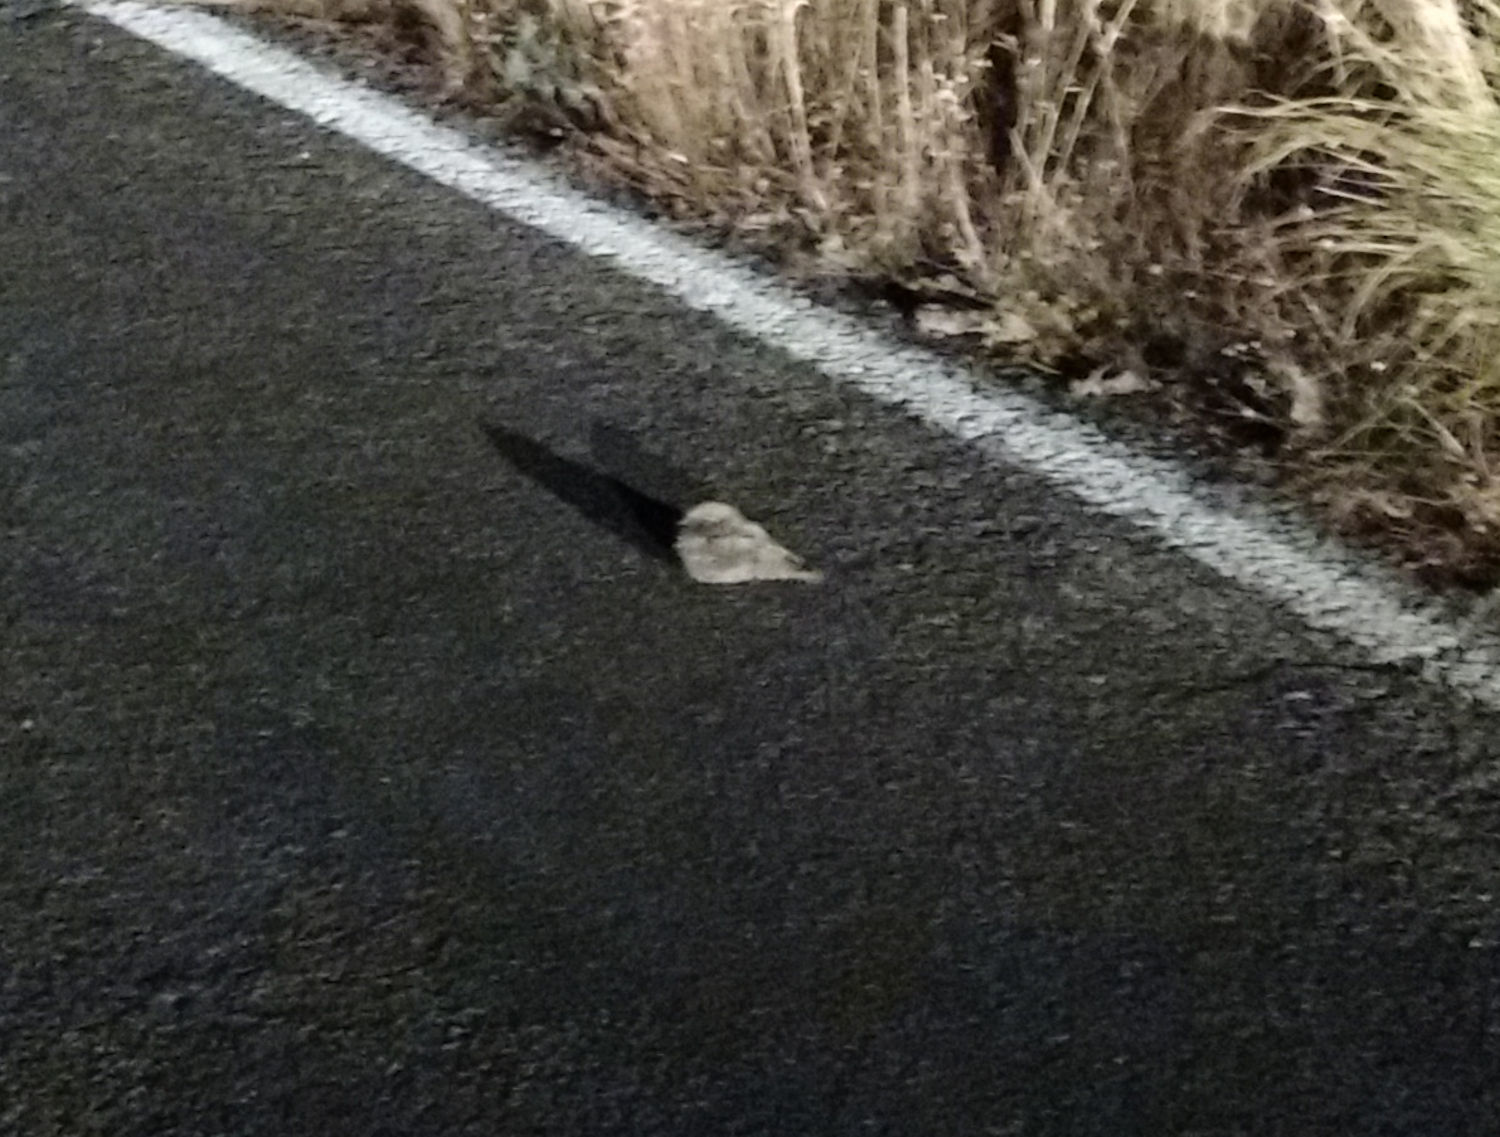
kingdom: Animalia
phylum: Chordata
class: Aves
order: Caprimulgiformes
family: Caprimulgidae
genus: Phalaenoptilus
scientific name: Phalaenoptilus nuttallii
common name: Common poorwill
